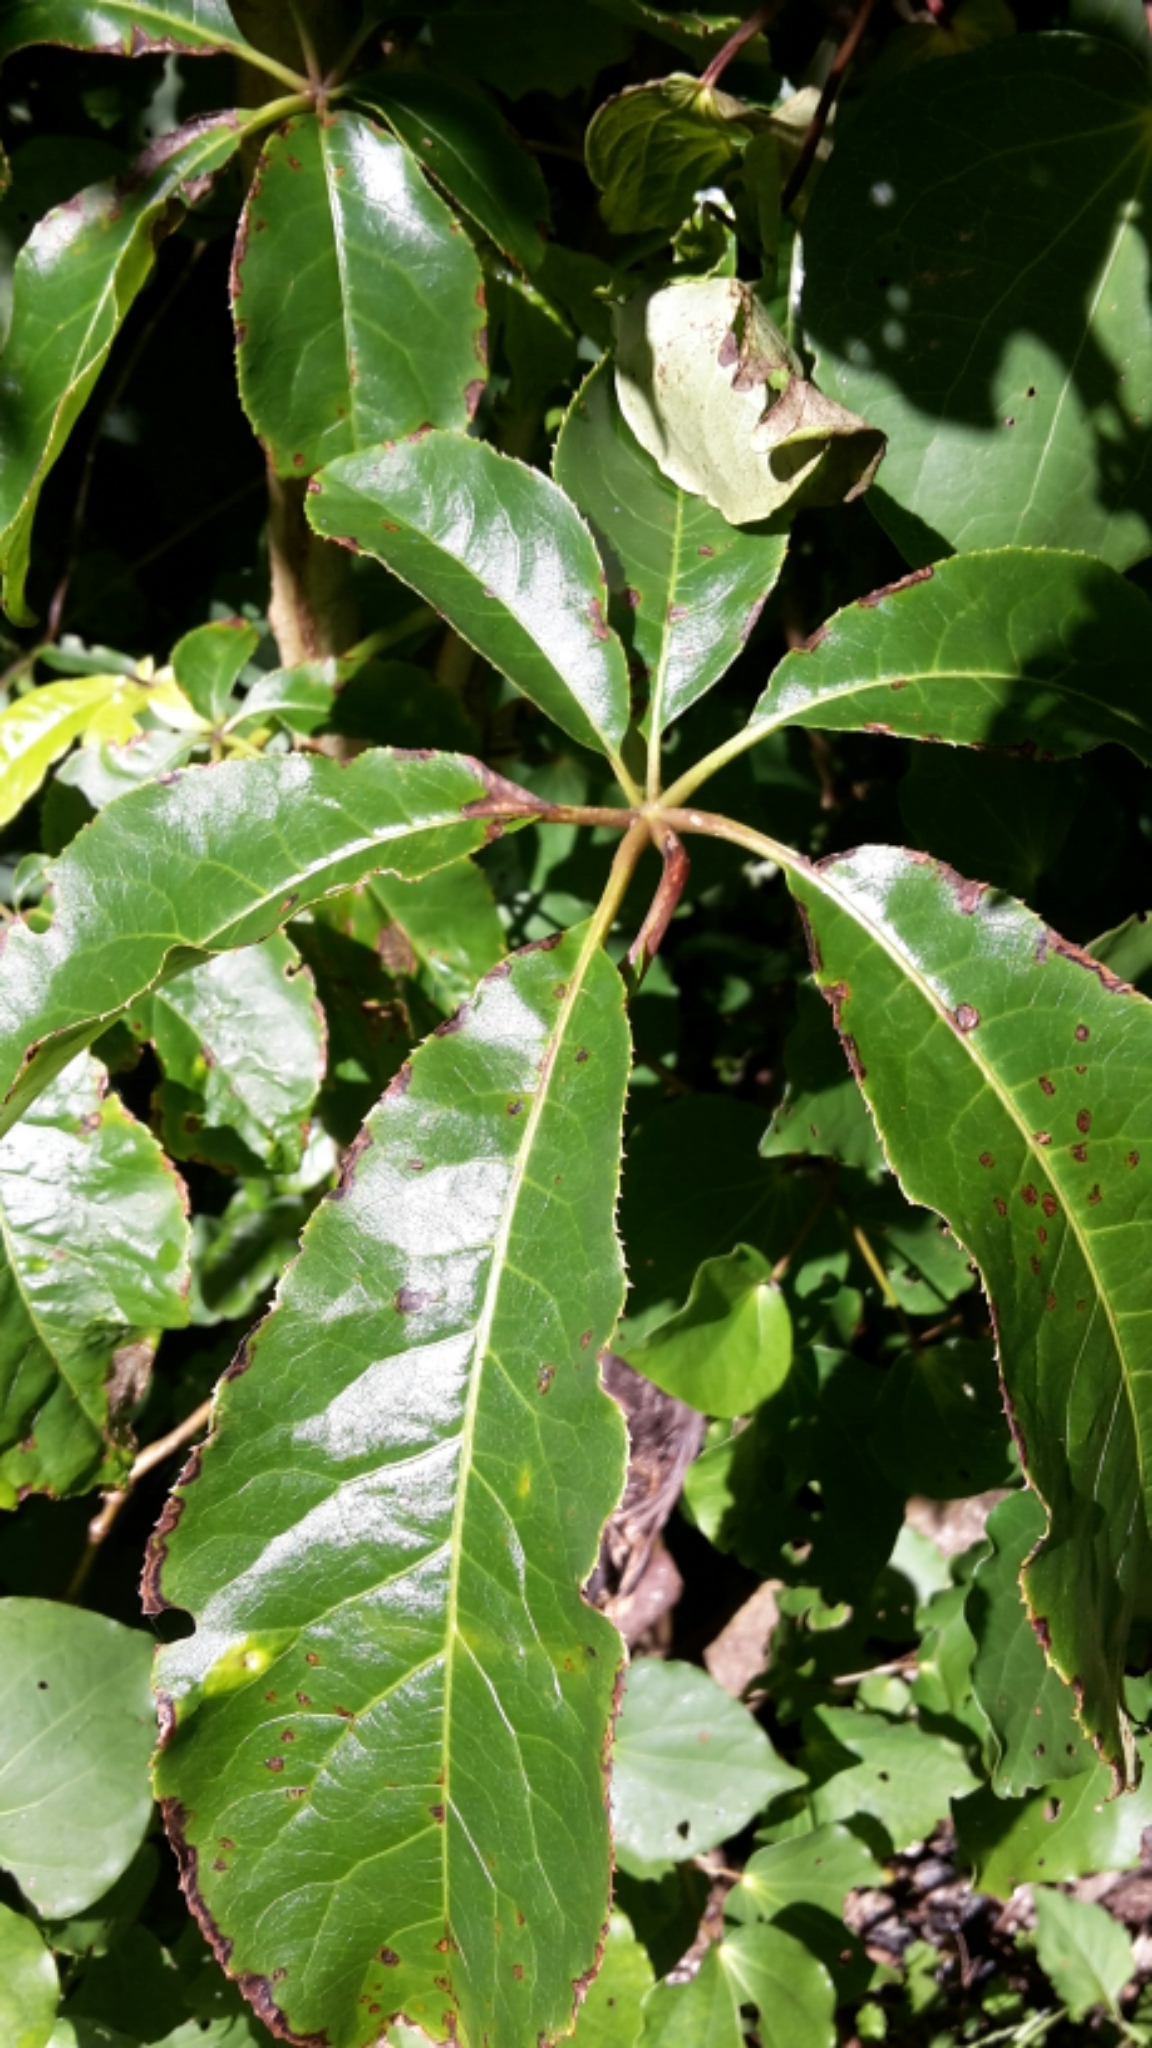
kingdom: Plantae
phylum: Tracheophyta
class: Magnoliopsida
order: Apiales
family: Araliaceae
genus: Schefflera
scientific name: Schefflera digitata
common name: Pate
